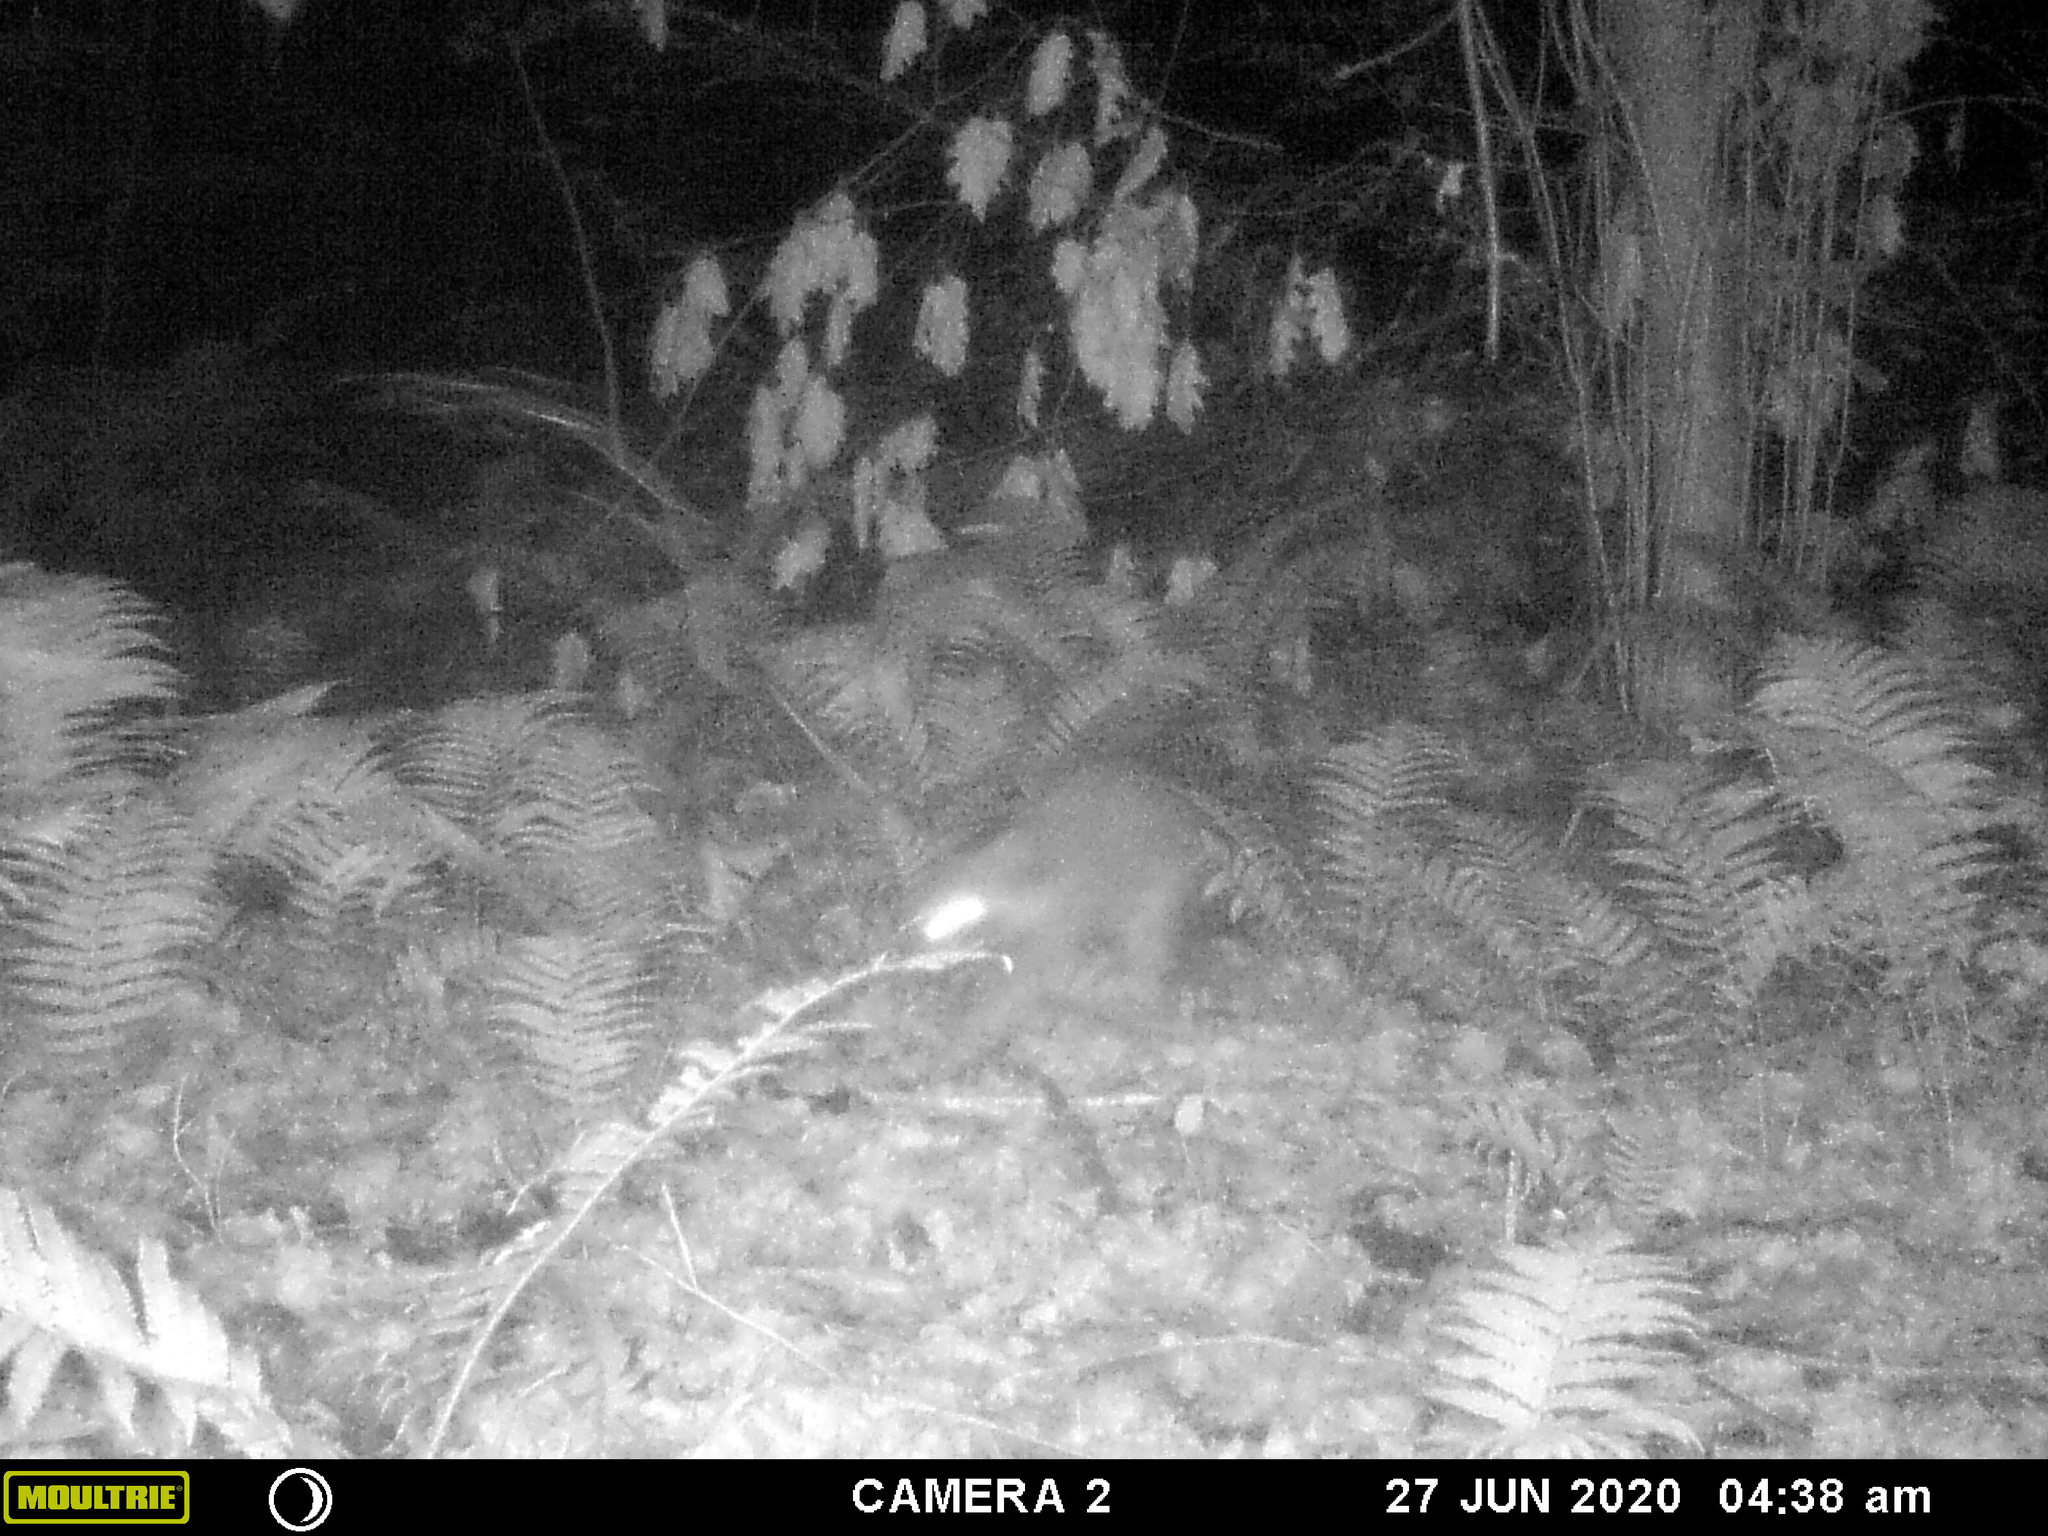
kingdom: Animalia
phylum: Chordata
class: Mammalia
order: Carnivora
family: Procyonidae
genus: Procyon
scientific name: Procyon lotor
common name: Raccoon
